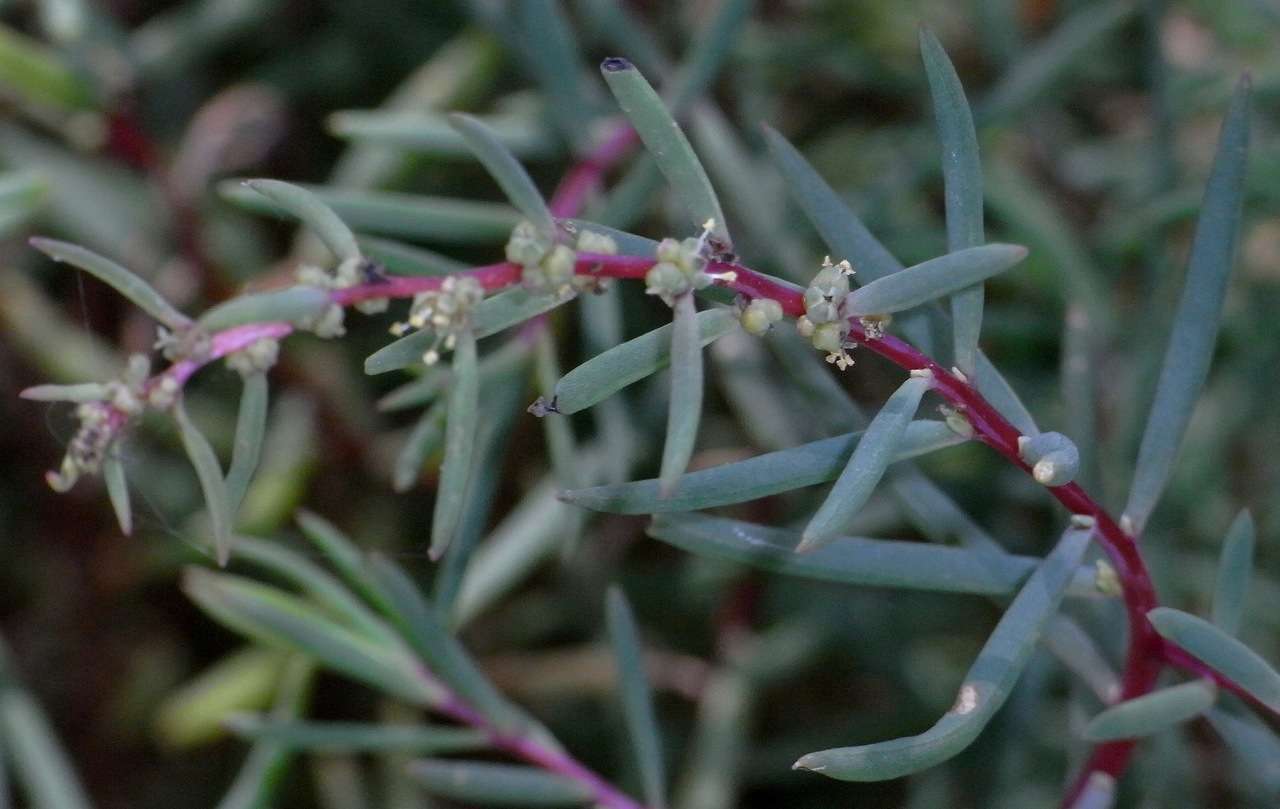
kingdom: Plantae
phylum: Tracheophyta
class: Magnoliopsida
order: Caryophyllales
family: Amaranthaceae
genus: Suaeda
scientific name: Suaeda australis
